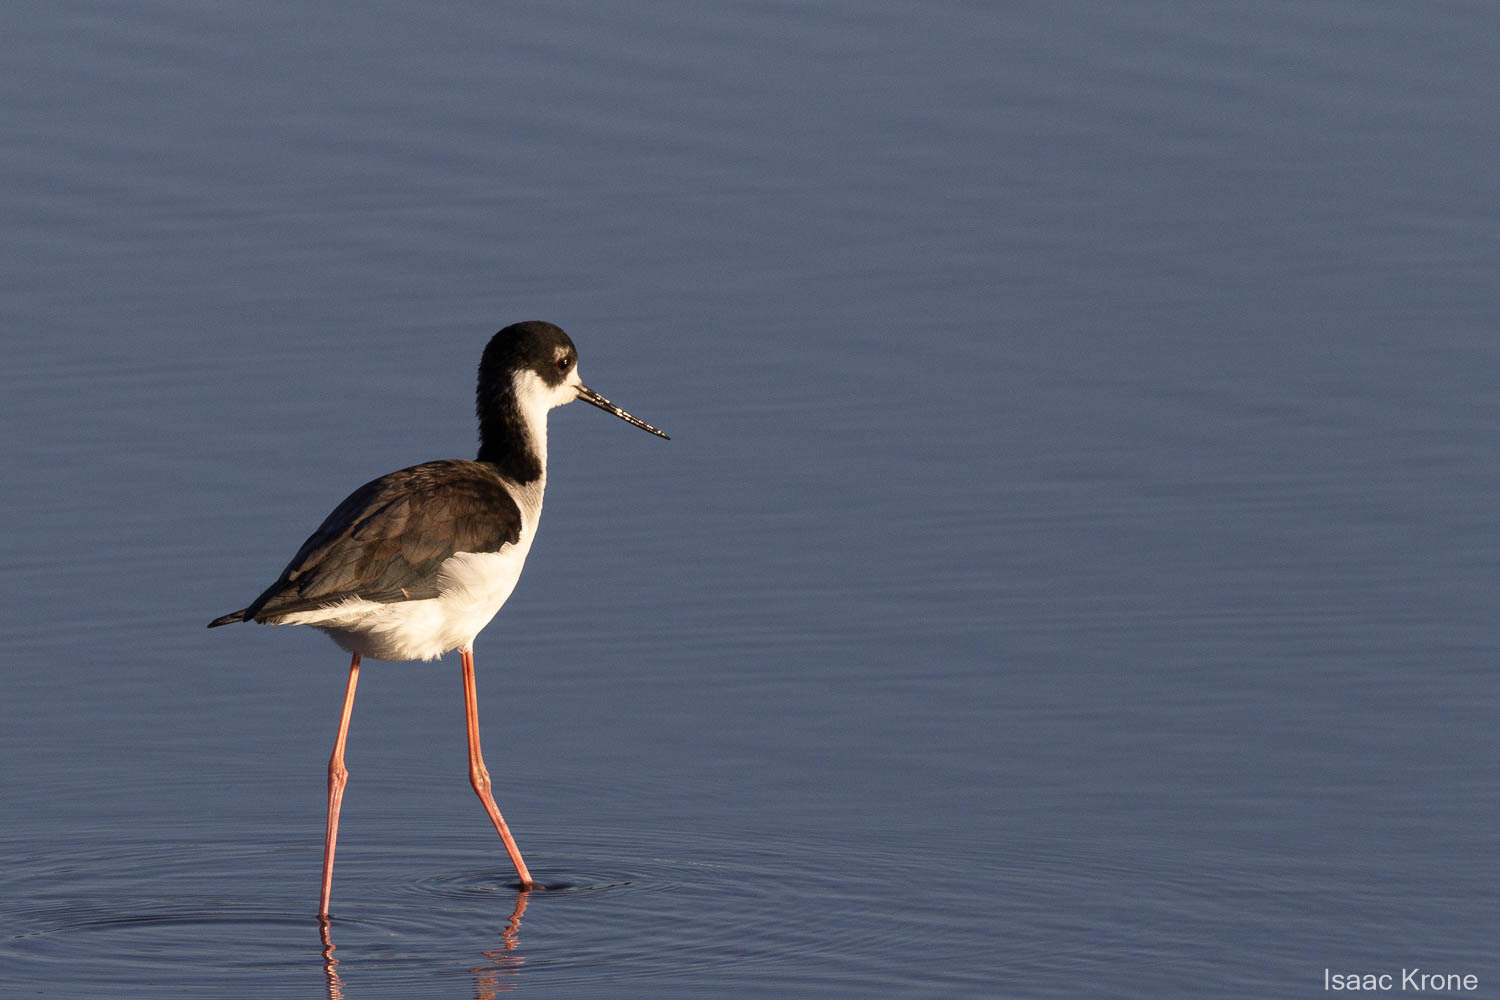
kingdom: Animalia
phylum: Chordata
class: Aves
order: Charadriiformes
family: Recurvirostridae
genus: Himantopus
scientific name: Himantopus mexicanus
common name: Black-necked stilt
